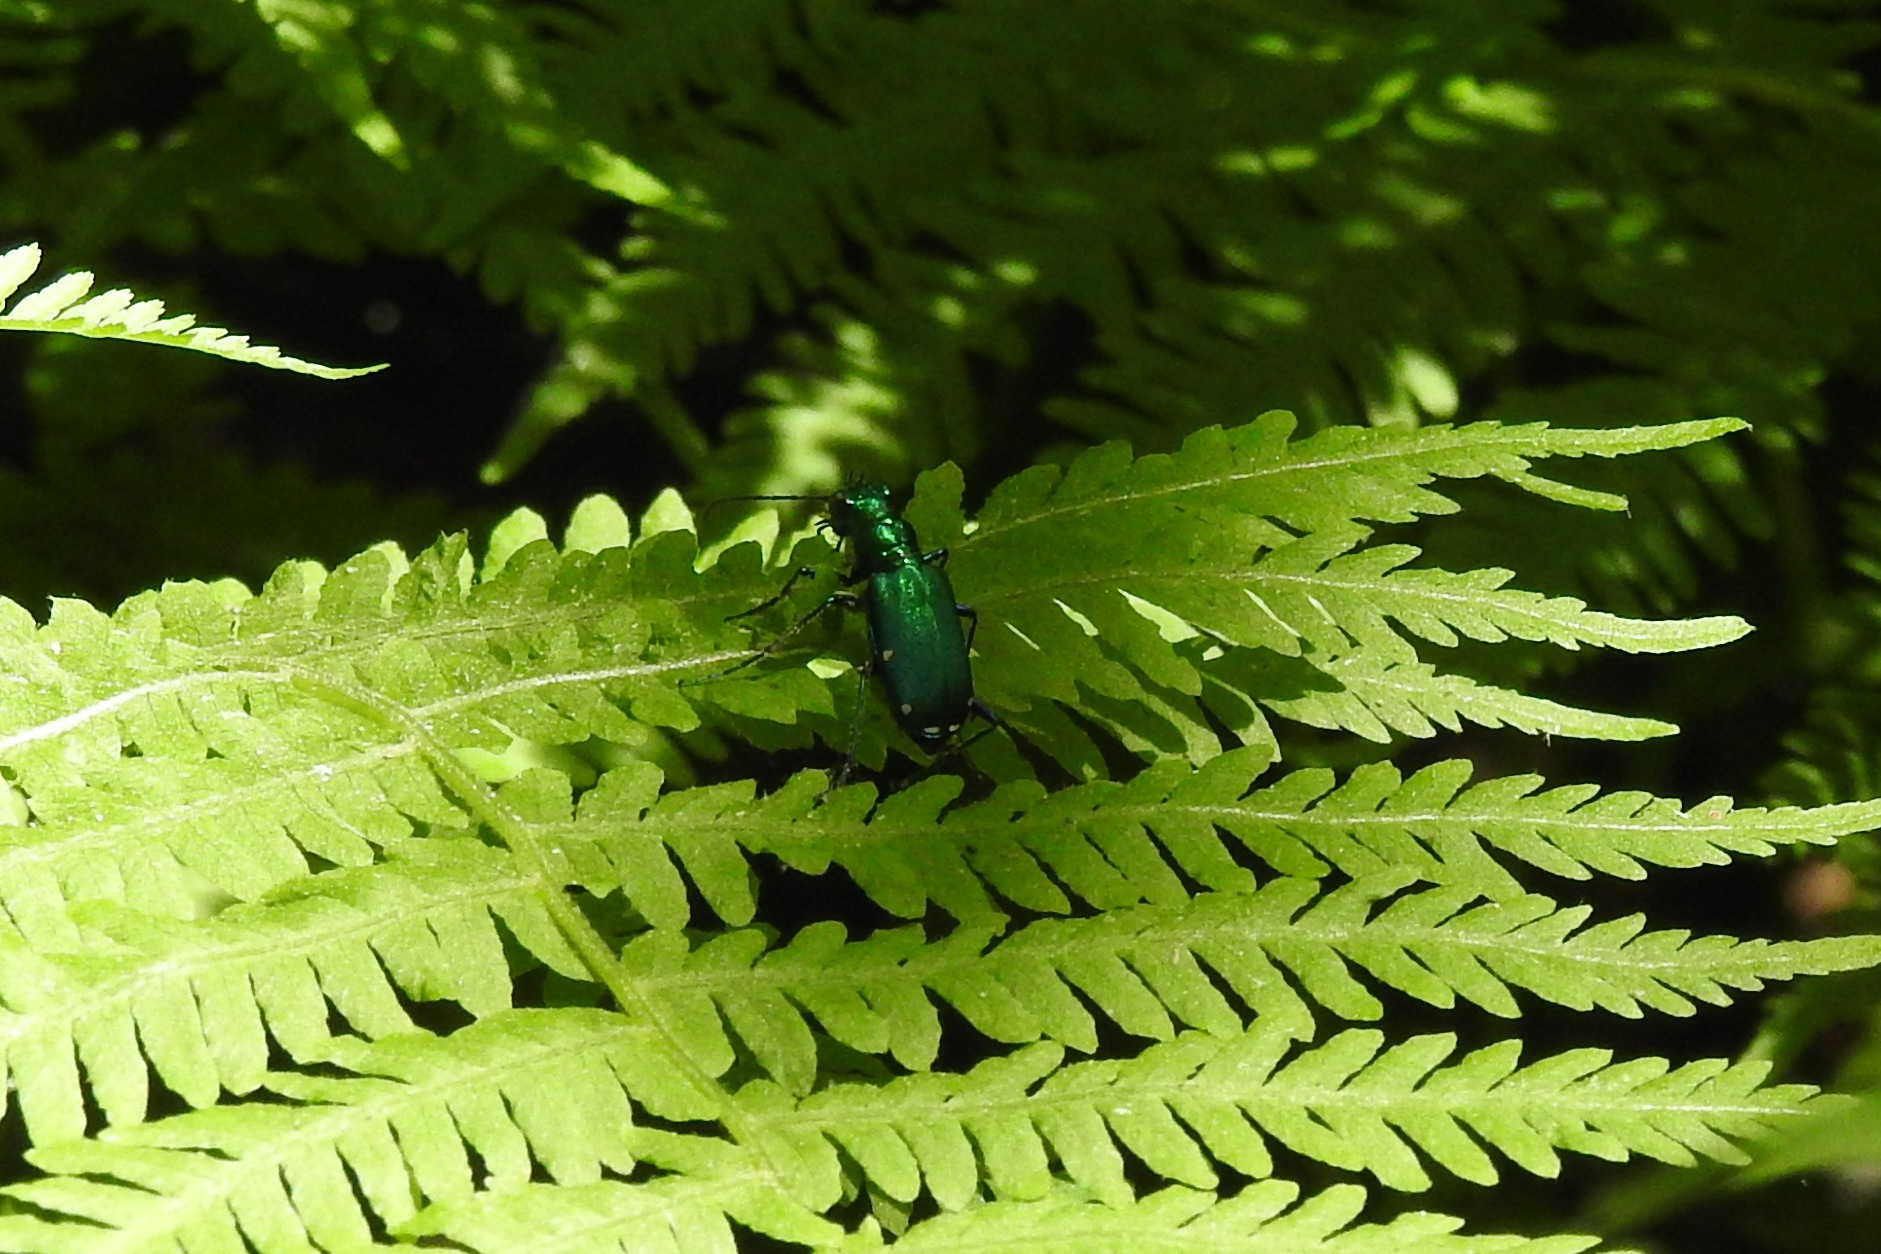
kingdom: Animalia
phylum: Arthropoda
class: Insecta
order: Coleoptera
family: Carabidae
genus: Cicindela
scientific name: Cicindela sexguttata
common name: Six-spotted tiger beetle
